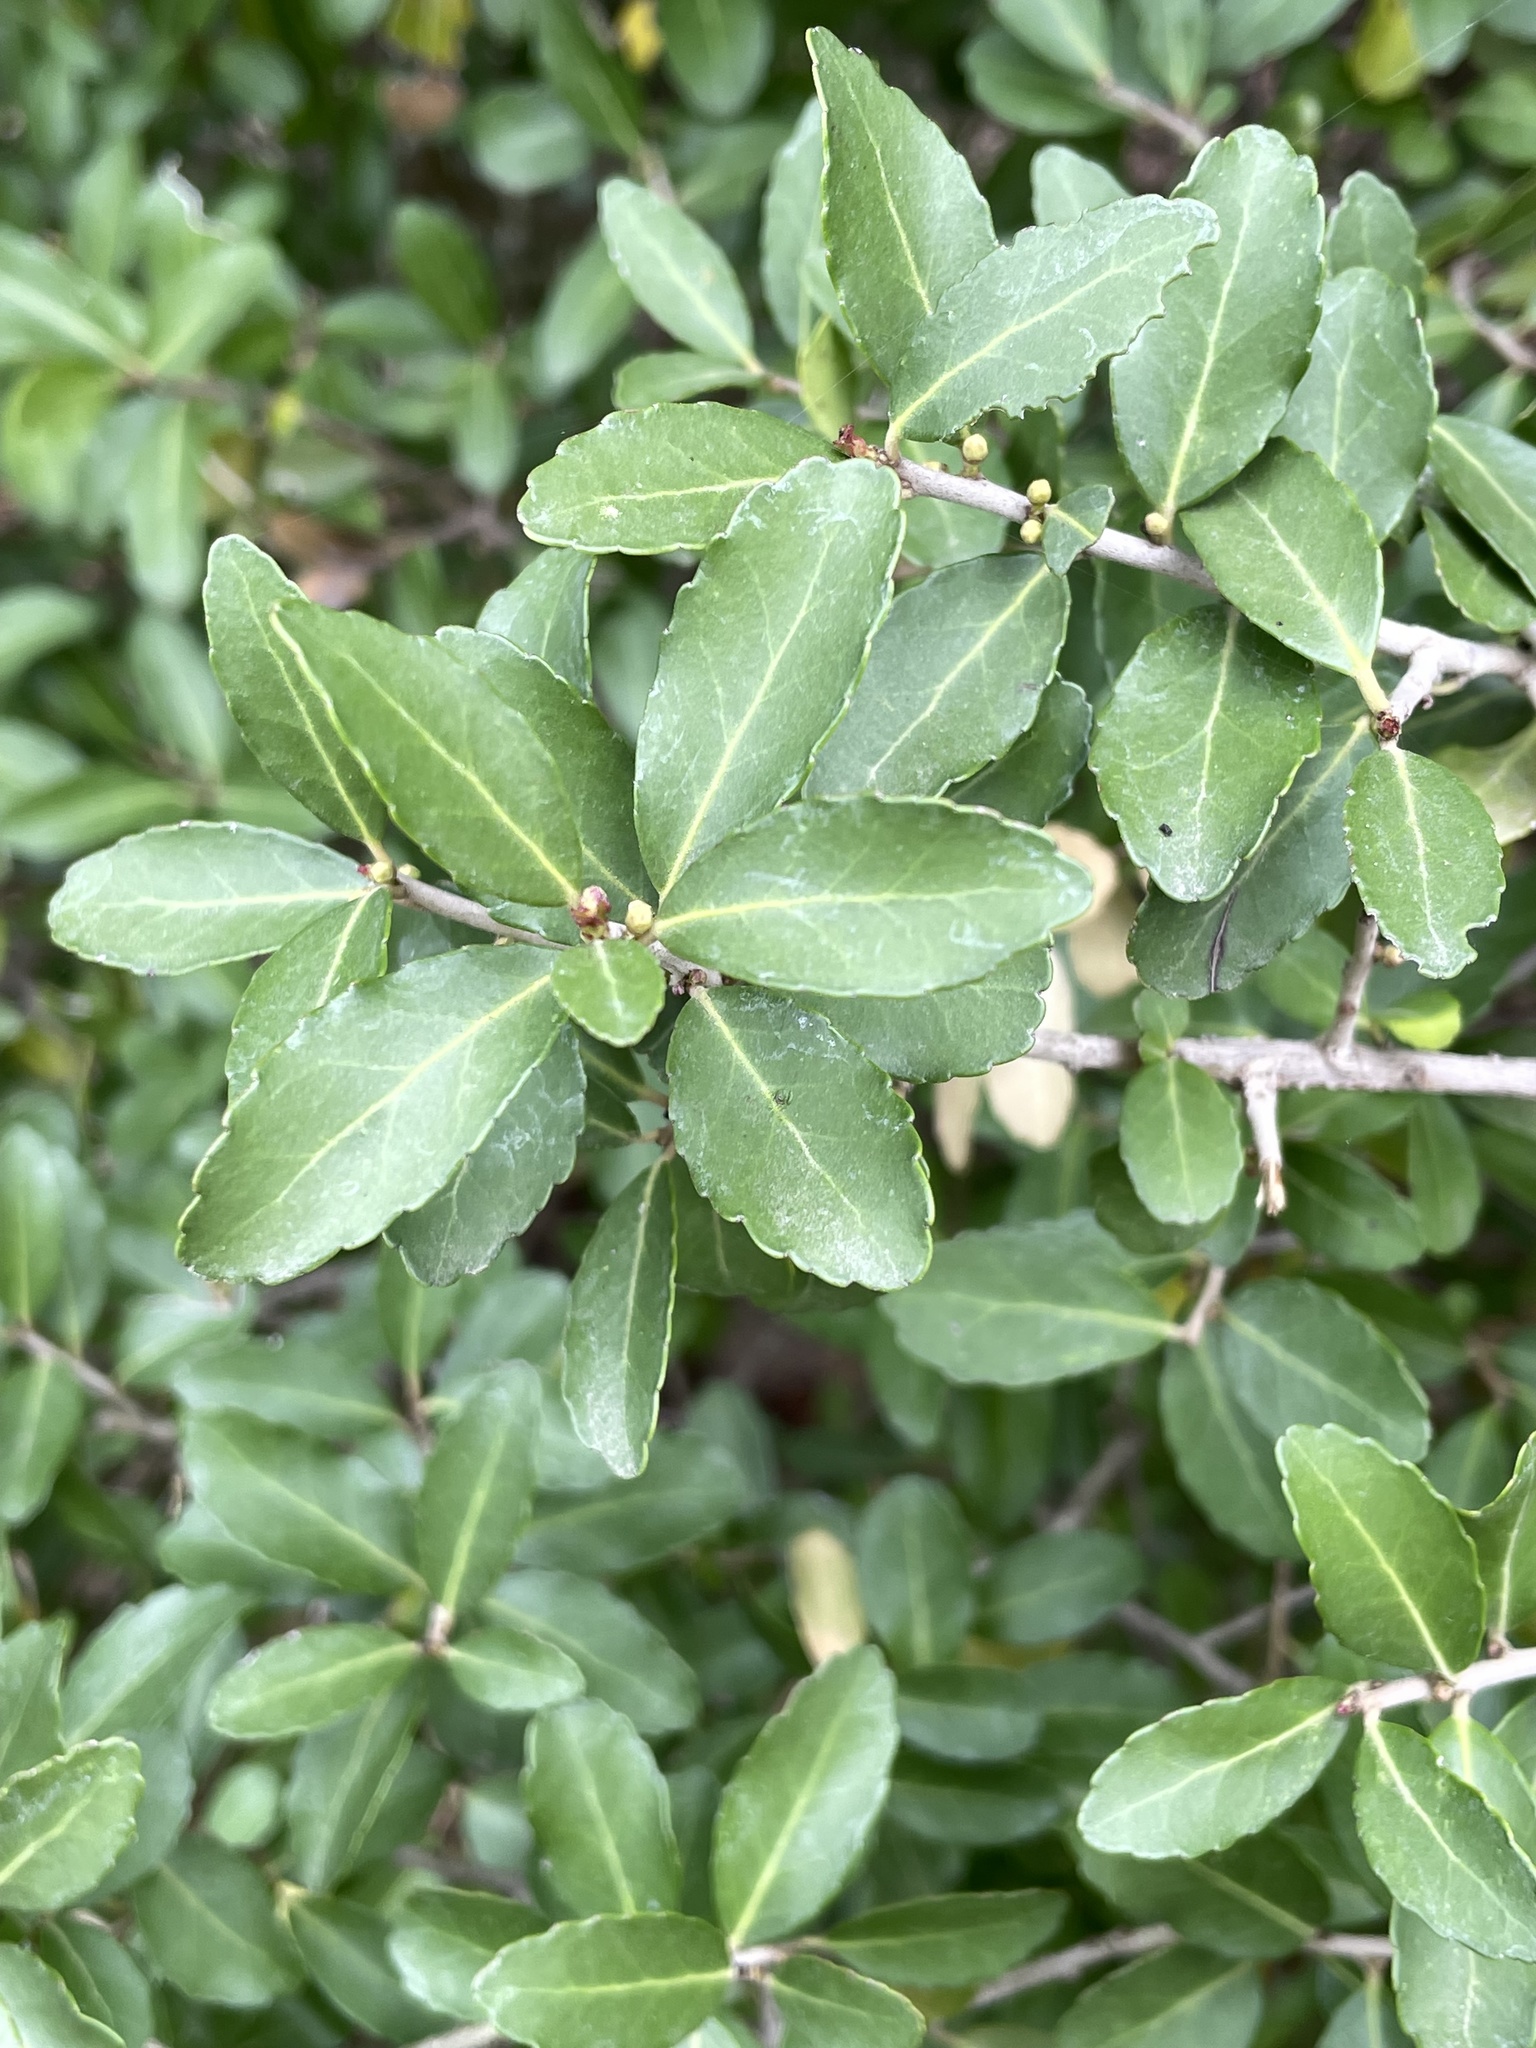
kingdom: Plantae
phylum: Tracheophyta
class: Magnoliopsida
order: Aquifoliales
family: Aquifoliaceae
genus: Ilex
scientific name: Ilex vomitoria
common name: Yaupon holly
